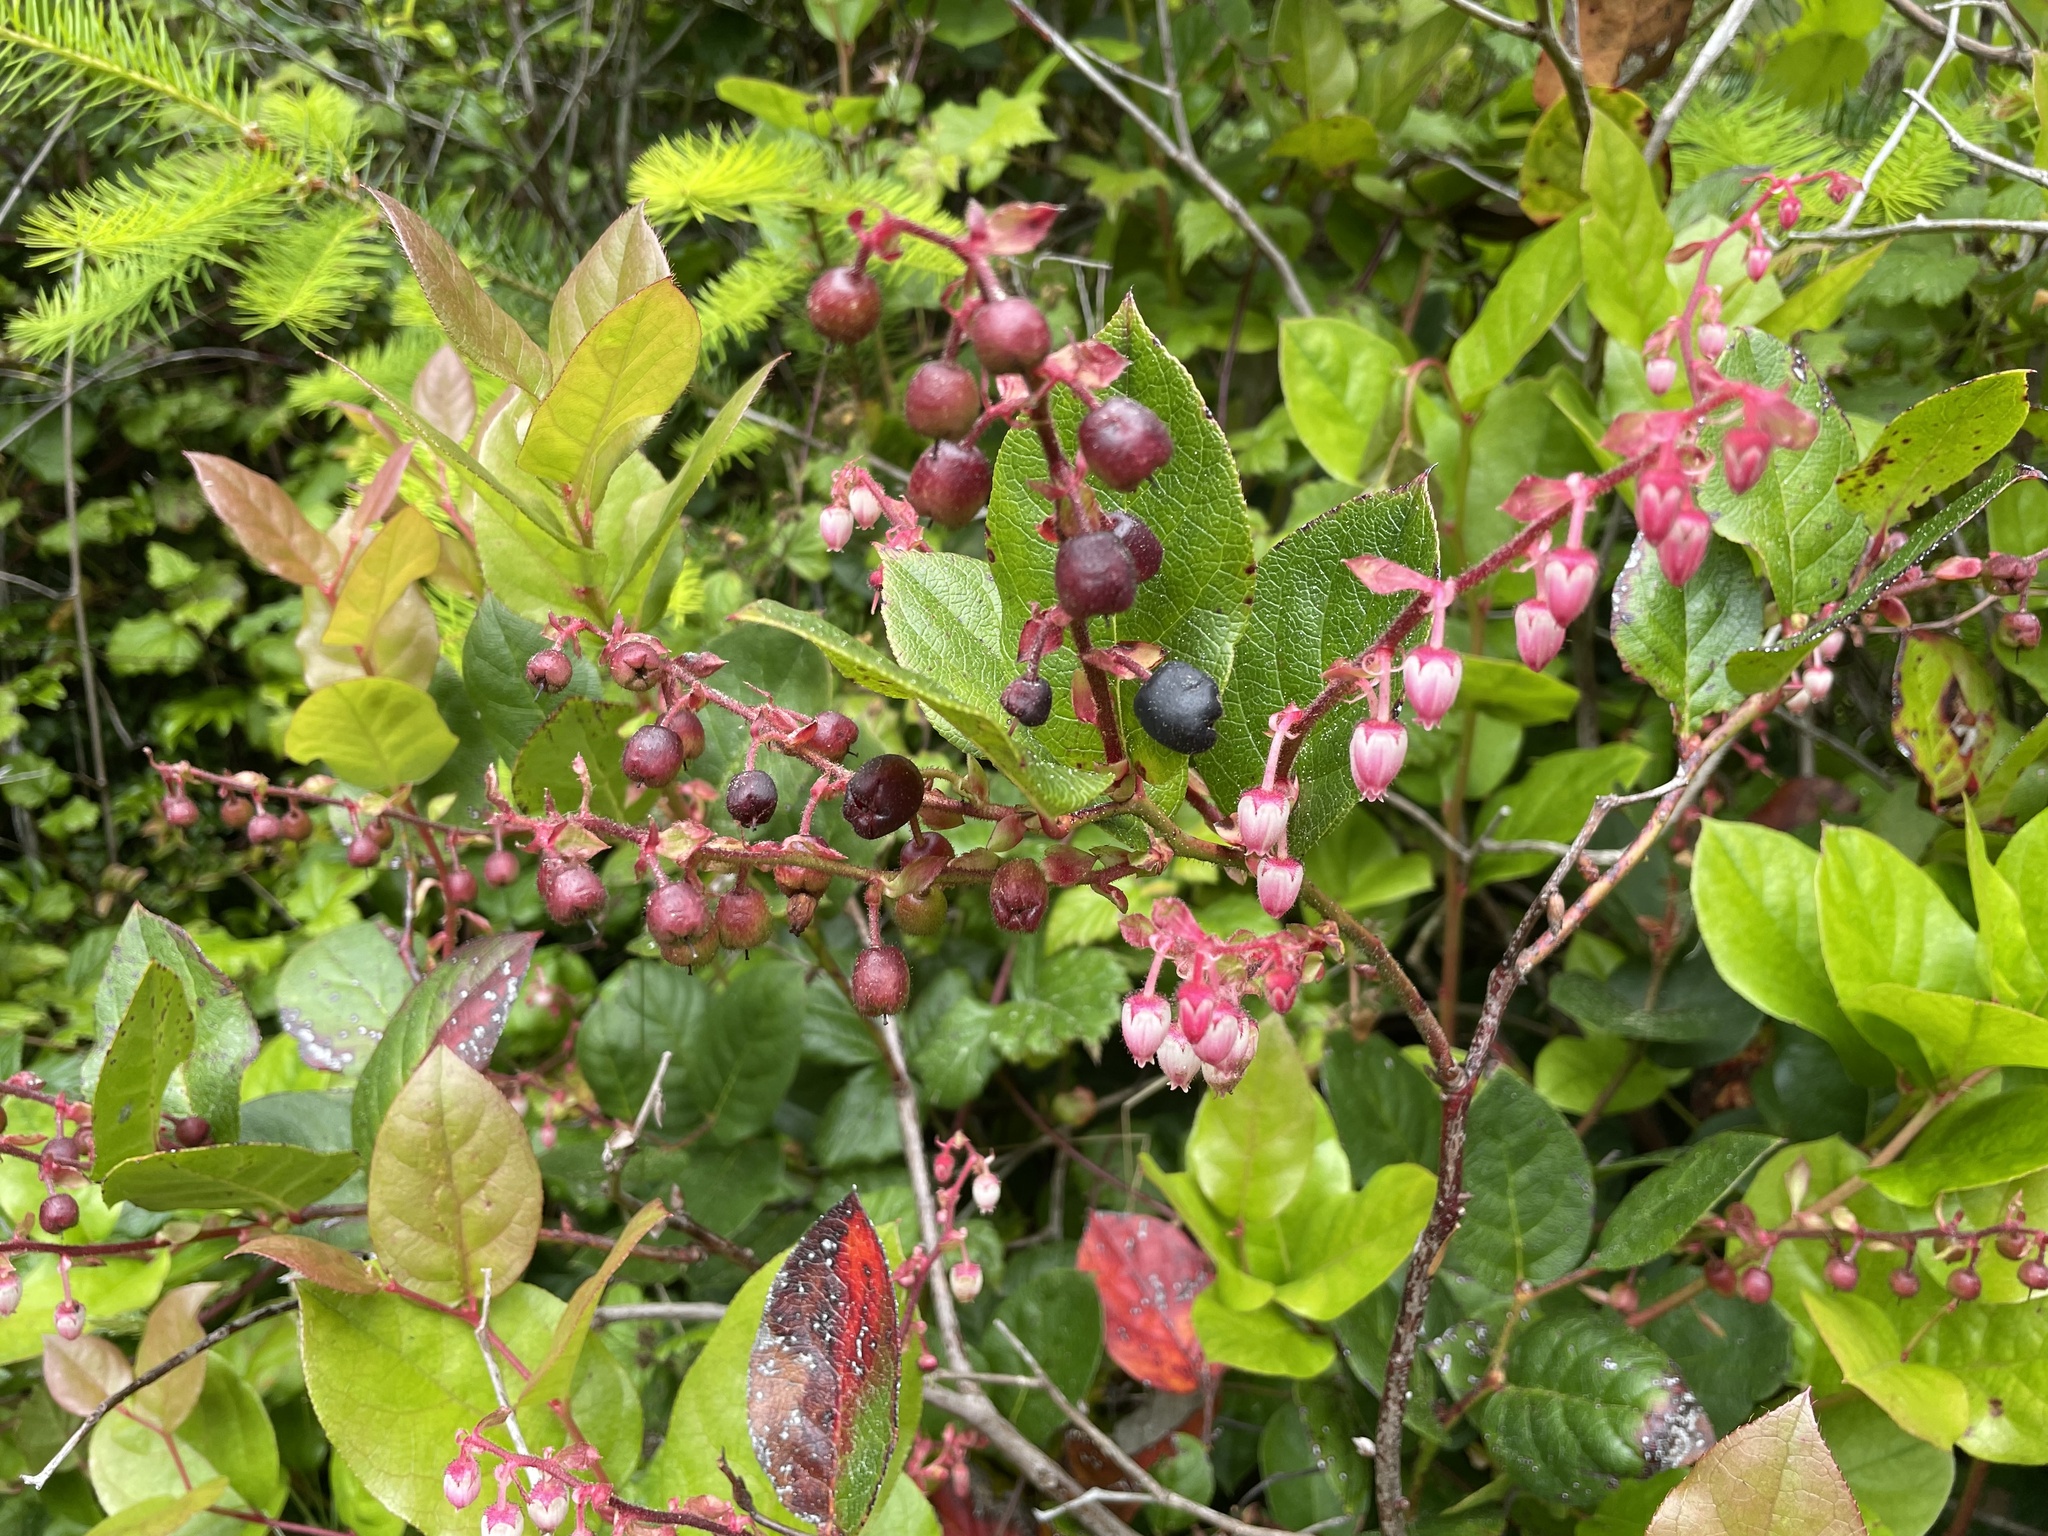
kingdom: Plantae
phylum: Tracheophyta
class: Magnoliopsida
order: Ericales
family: Ericaceae
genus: Gaultheria
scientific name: Gaultheria shallon
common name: Shallon
